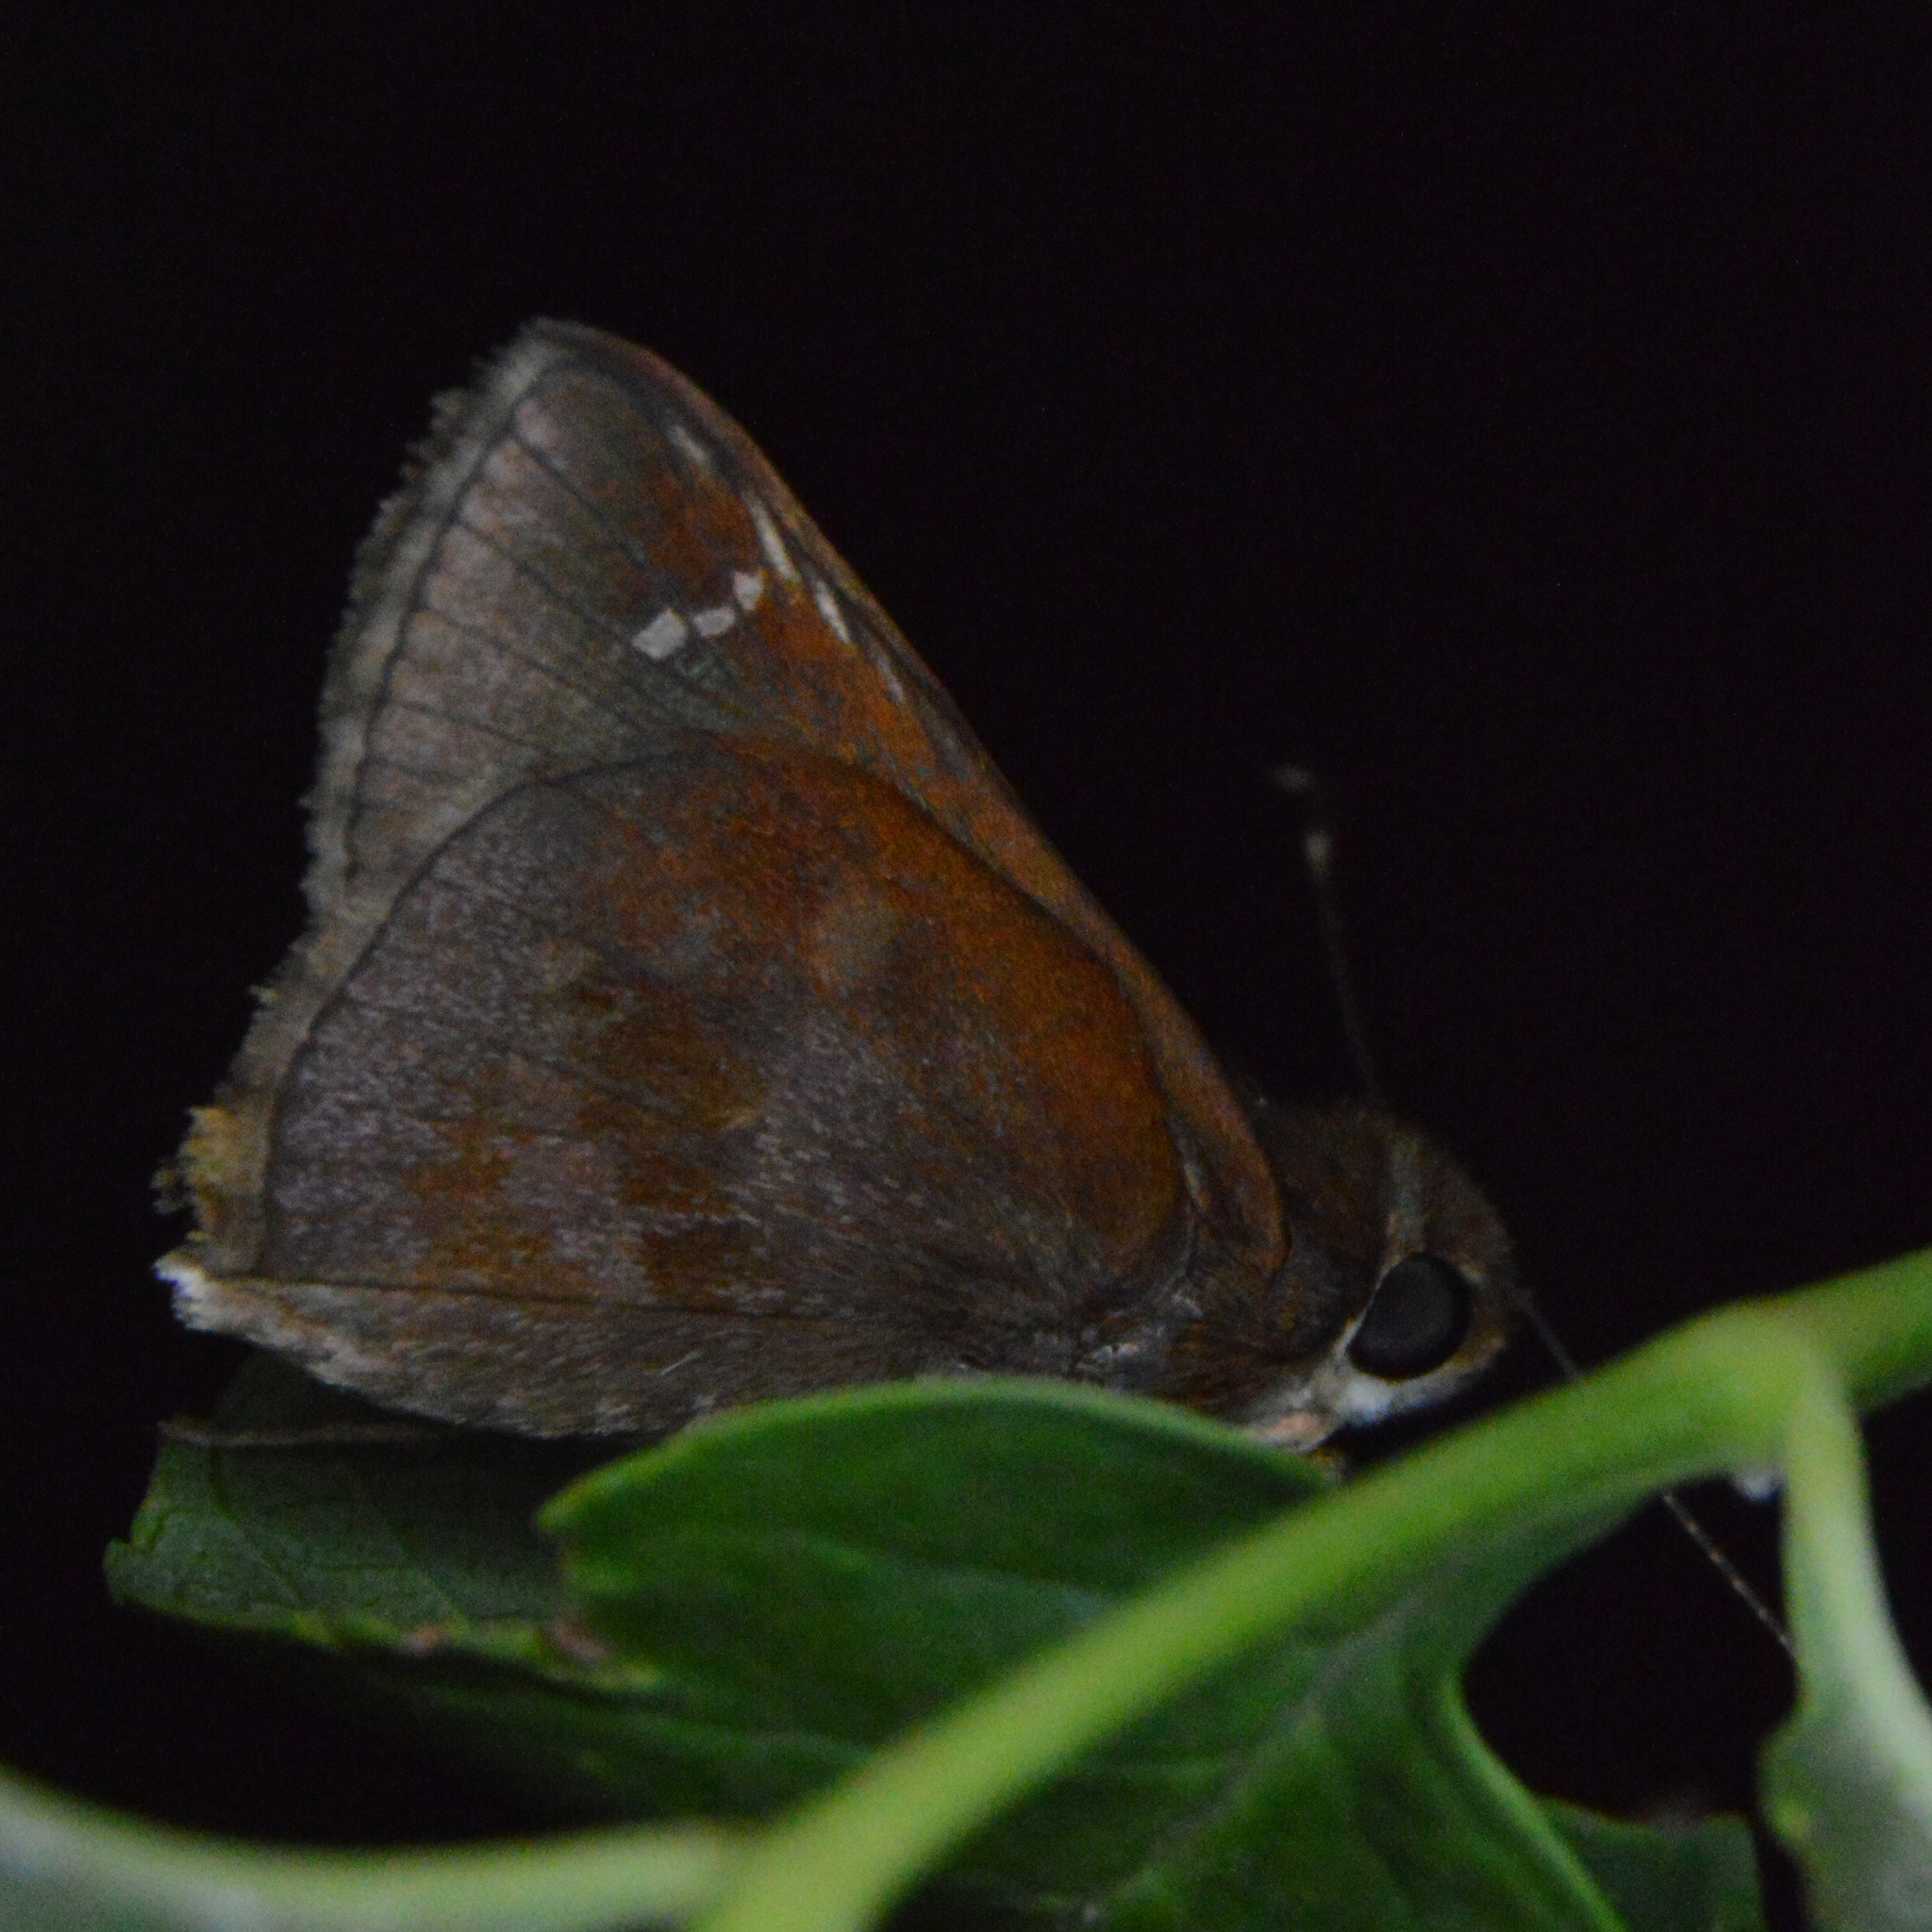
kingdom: Animalia
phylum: Arthropoda
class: Insecta
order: Lepidoptera
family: Hesperiidae
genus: Lerema
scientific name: Lerema accius
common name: Clouded skipper
